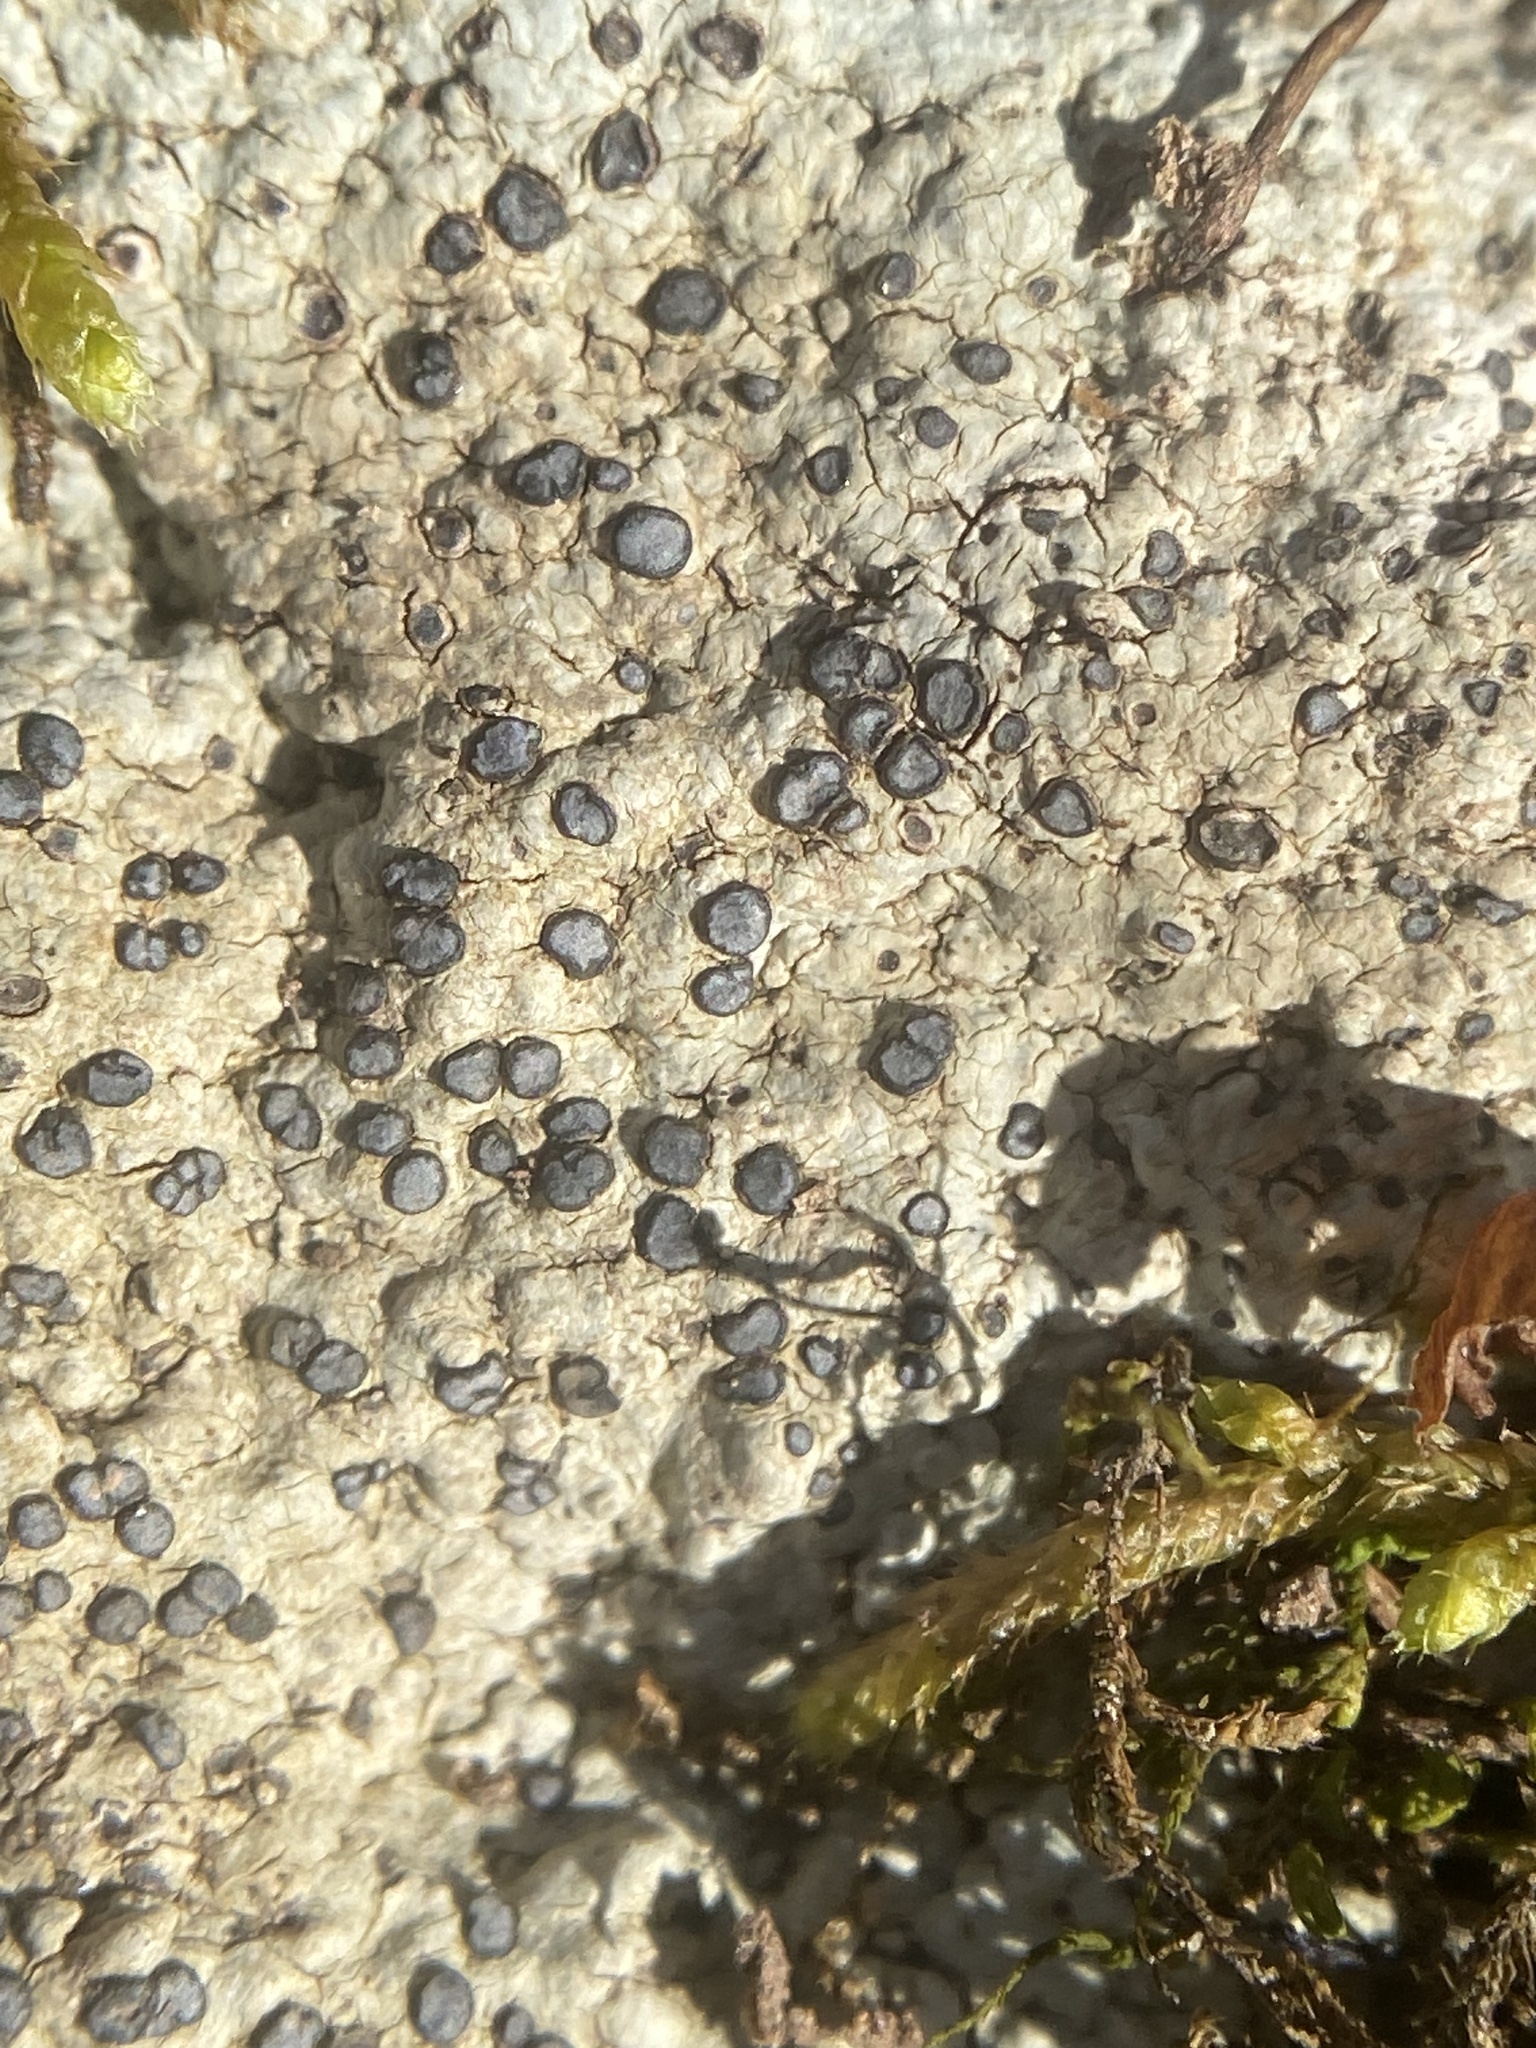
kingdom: Fungi
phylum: Ascomycota
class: Lecanoromycetes
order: Lecideales
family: Lecideaceae
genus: Porpidia
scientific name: Porpidia albocaerulescens
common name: Smokey-eyed boulder lichen
